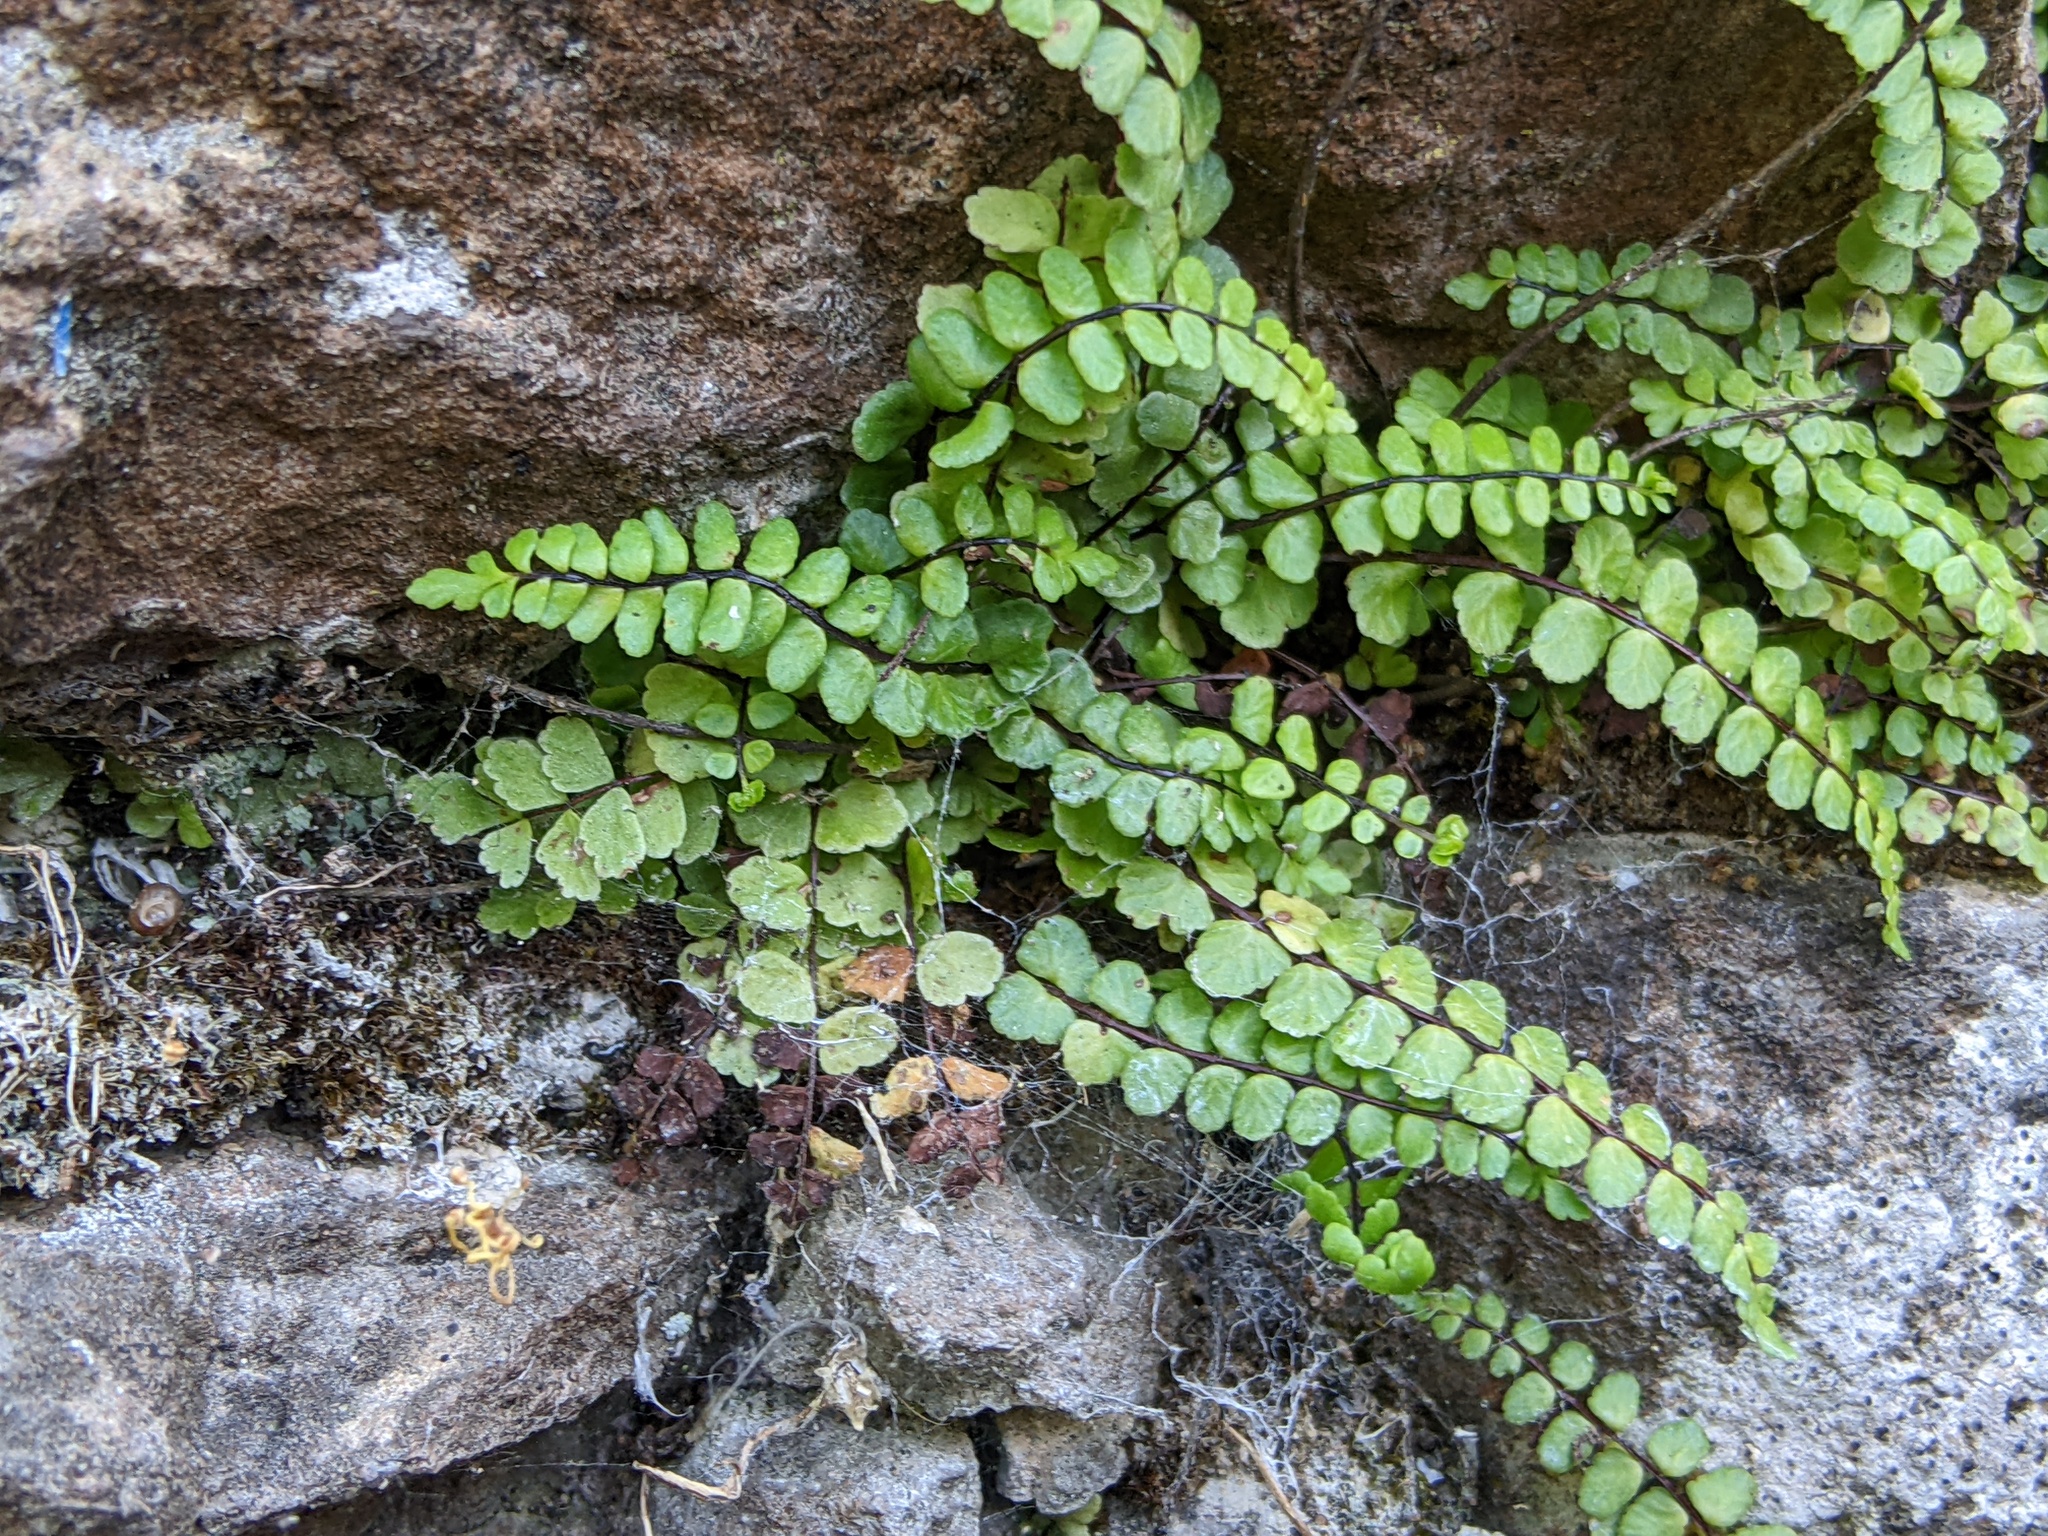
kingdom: Plantae
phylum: Tracheophyta
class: Polypodiopsida
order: Polypodiales
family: Aspleniaceae
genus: Asplenium
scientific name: Asplenium trichomanes
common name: Maidenhair spleenwort
